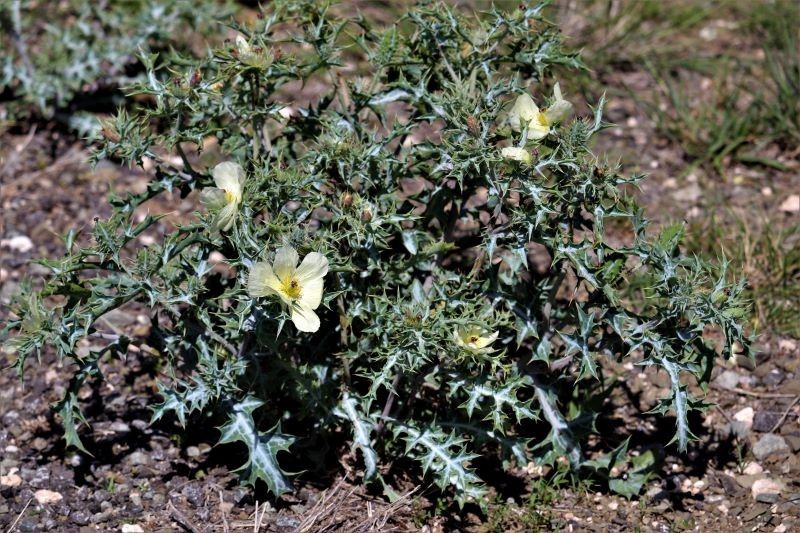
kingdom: Plantae
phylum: Tracheophyta
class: Magnoliopsida
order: Ranunculales
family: Papaveraceae
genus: Argemone
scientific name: Argemone ochroleuca
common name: White-flower mexican-poppy
